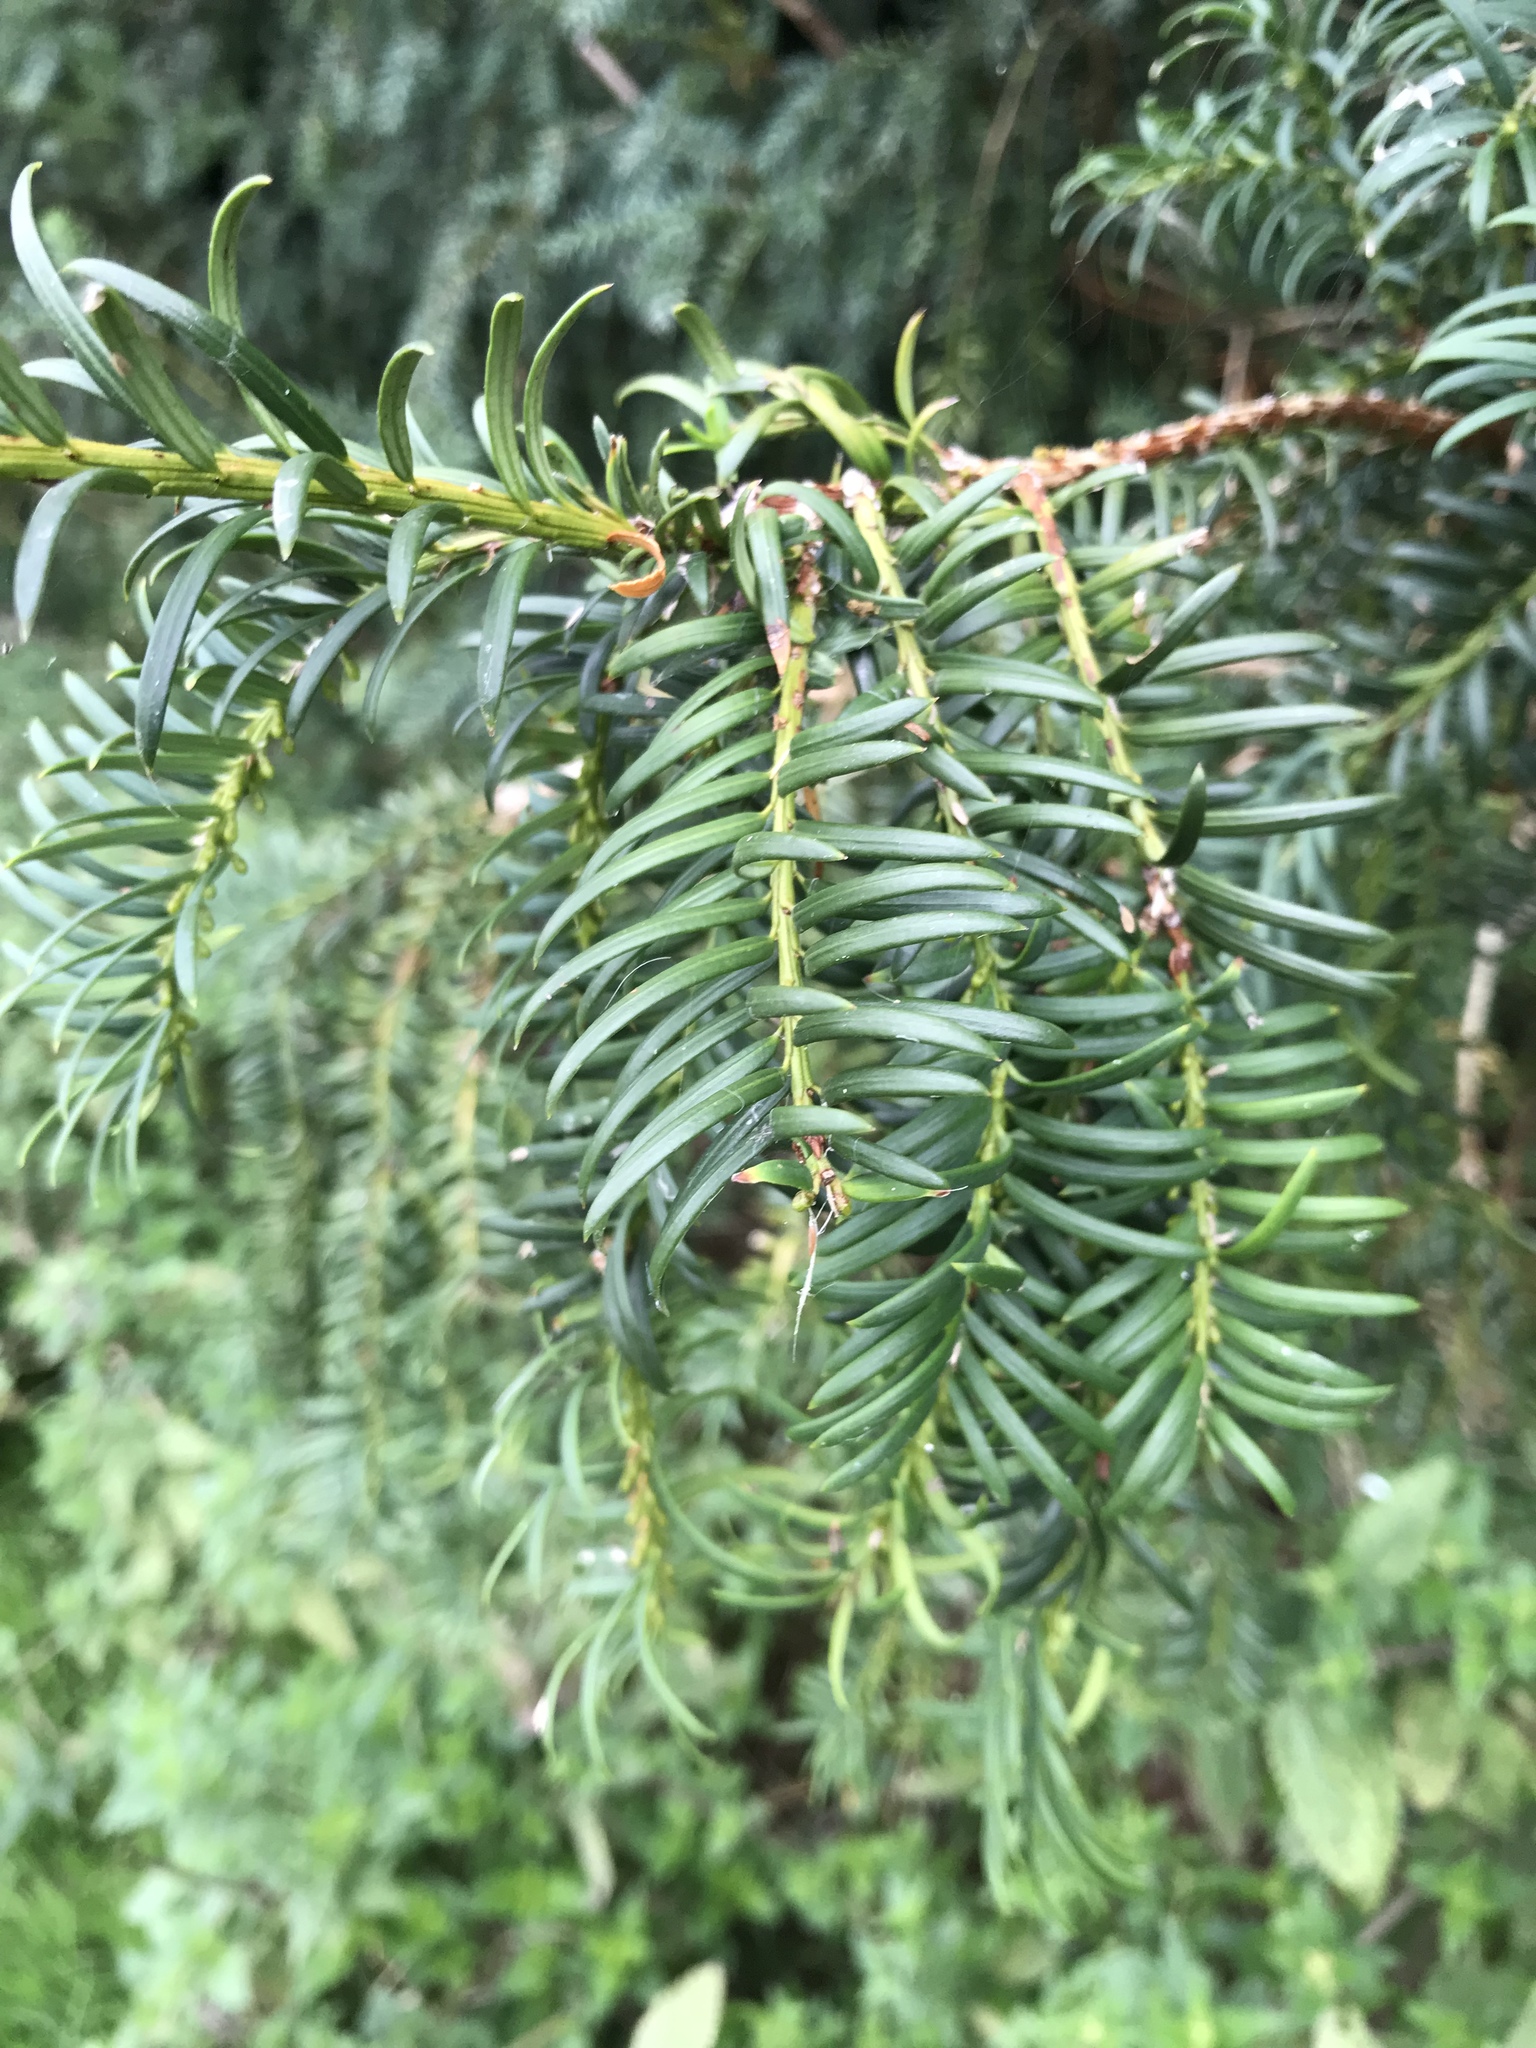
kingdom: Plantae
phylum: Tracheophyta
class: Pinopsida
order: Pinales
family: Taxaceae
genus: Taxus
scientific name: Taxus baccata
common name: Yew
